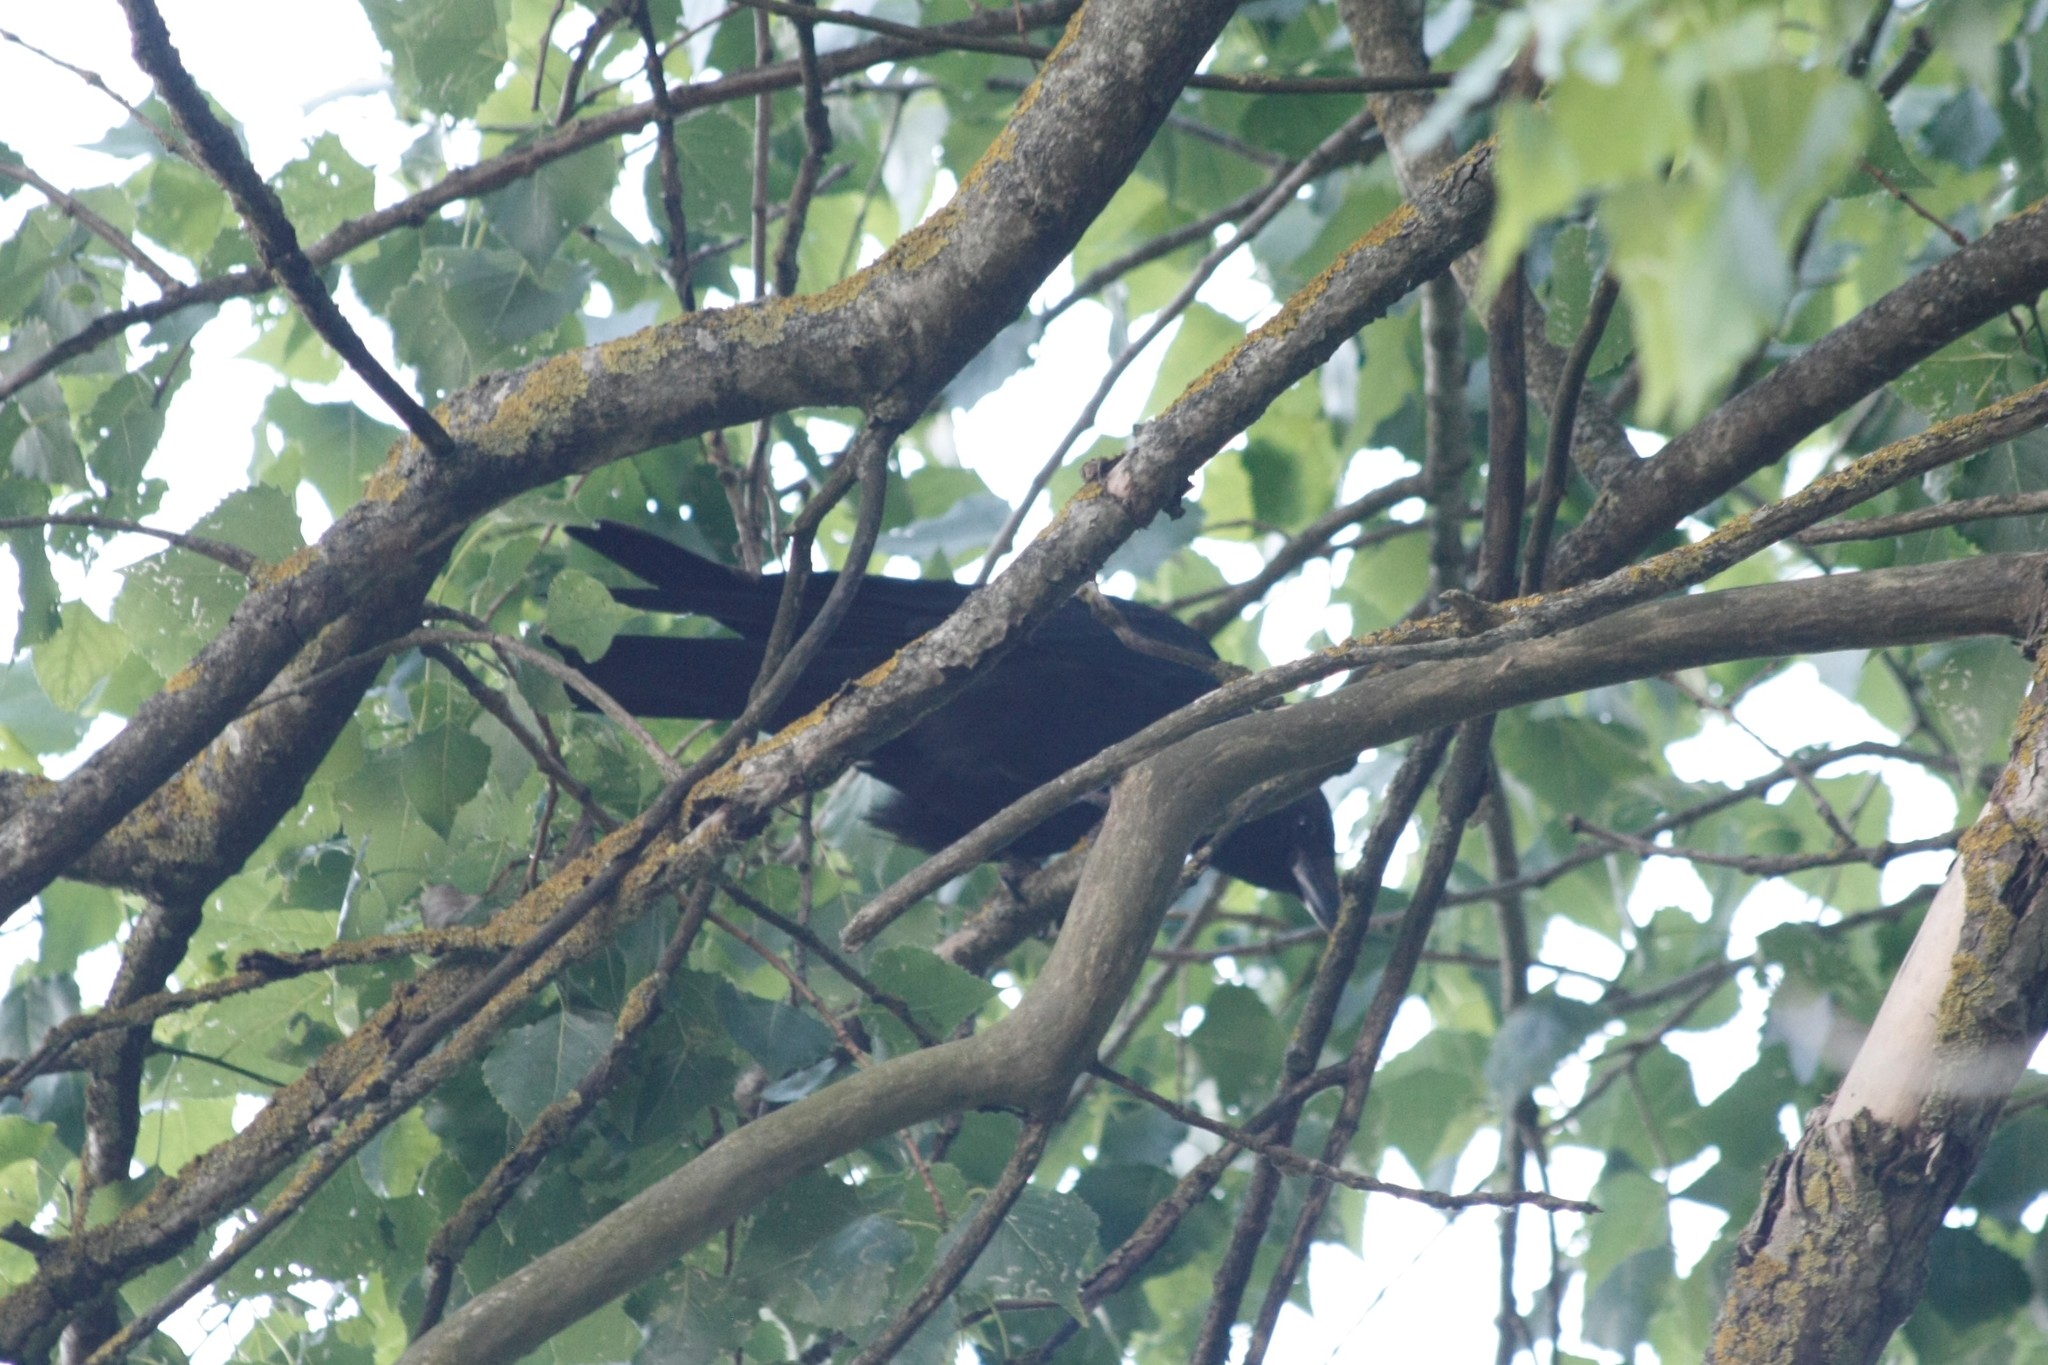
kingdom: Animalia
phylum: Chordata
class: Aves
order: Passeriformes
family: Corvidae
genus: Corvus
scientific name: Corvus corone
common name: Carrion crow
